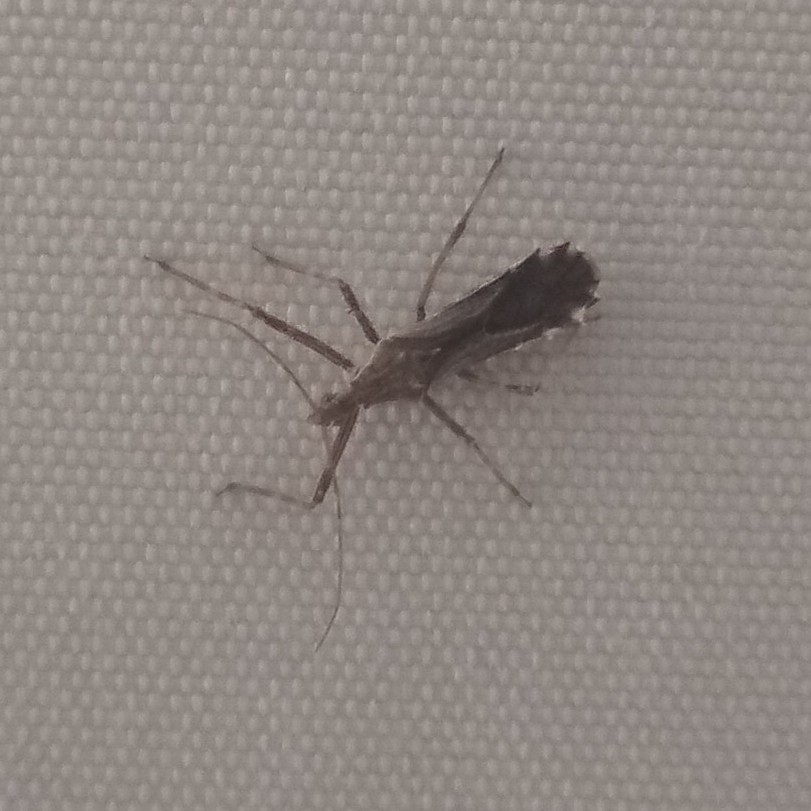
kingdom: Animalia
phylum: Arthropoda
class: Insecta
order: Hemiptera
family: Reduviidae
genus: Atrachelus
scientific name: Atrachelus cinereus
